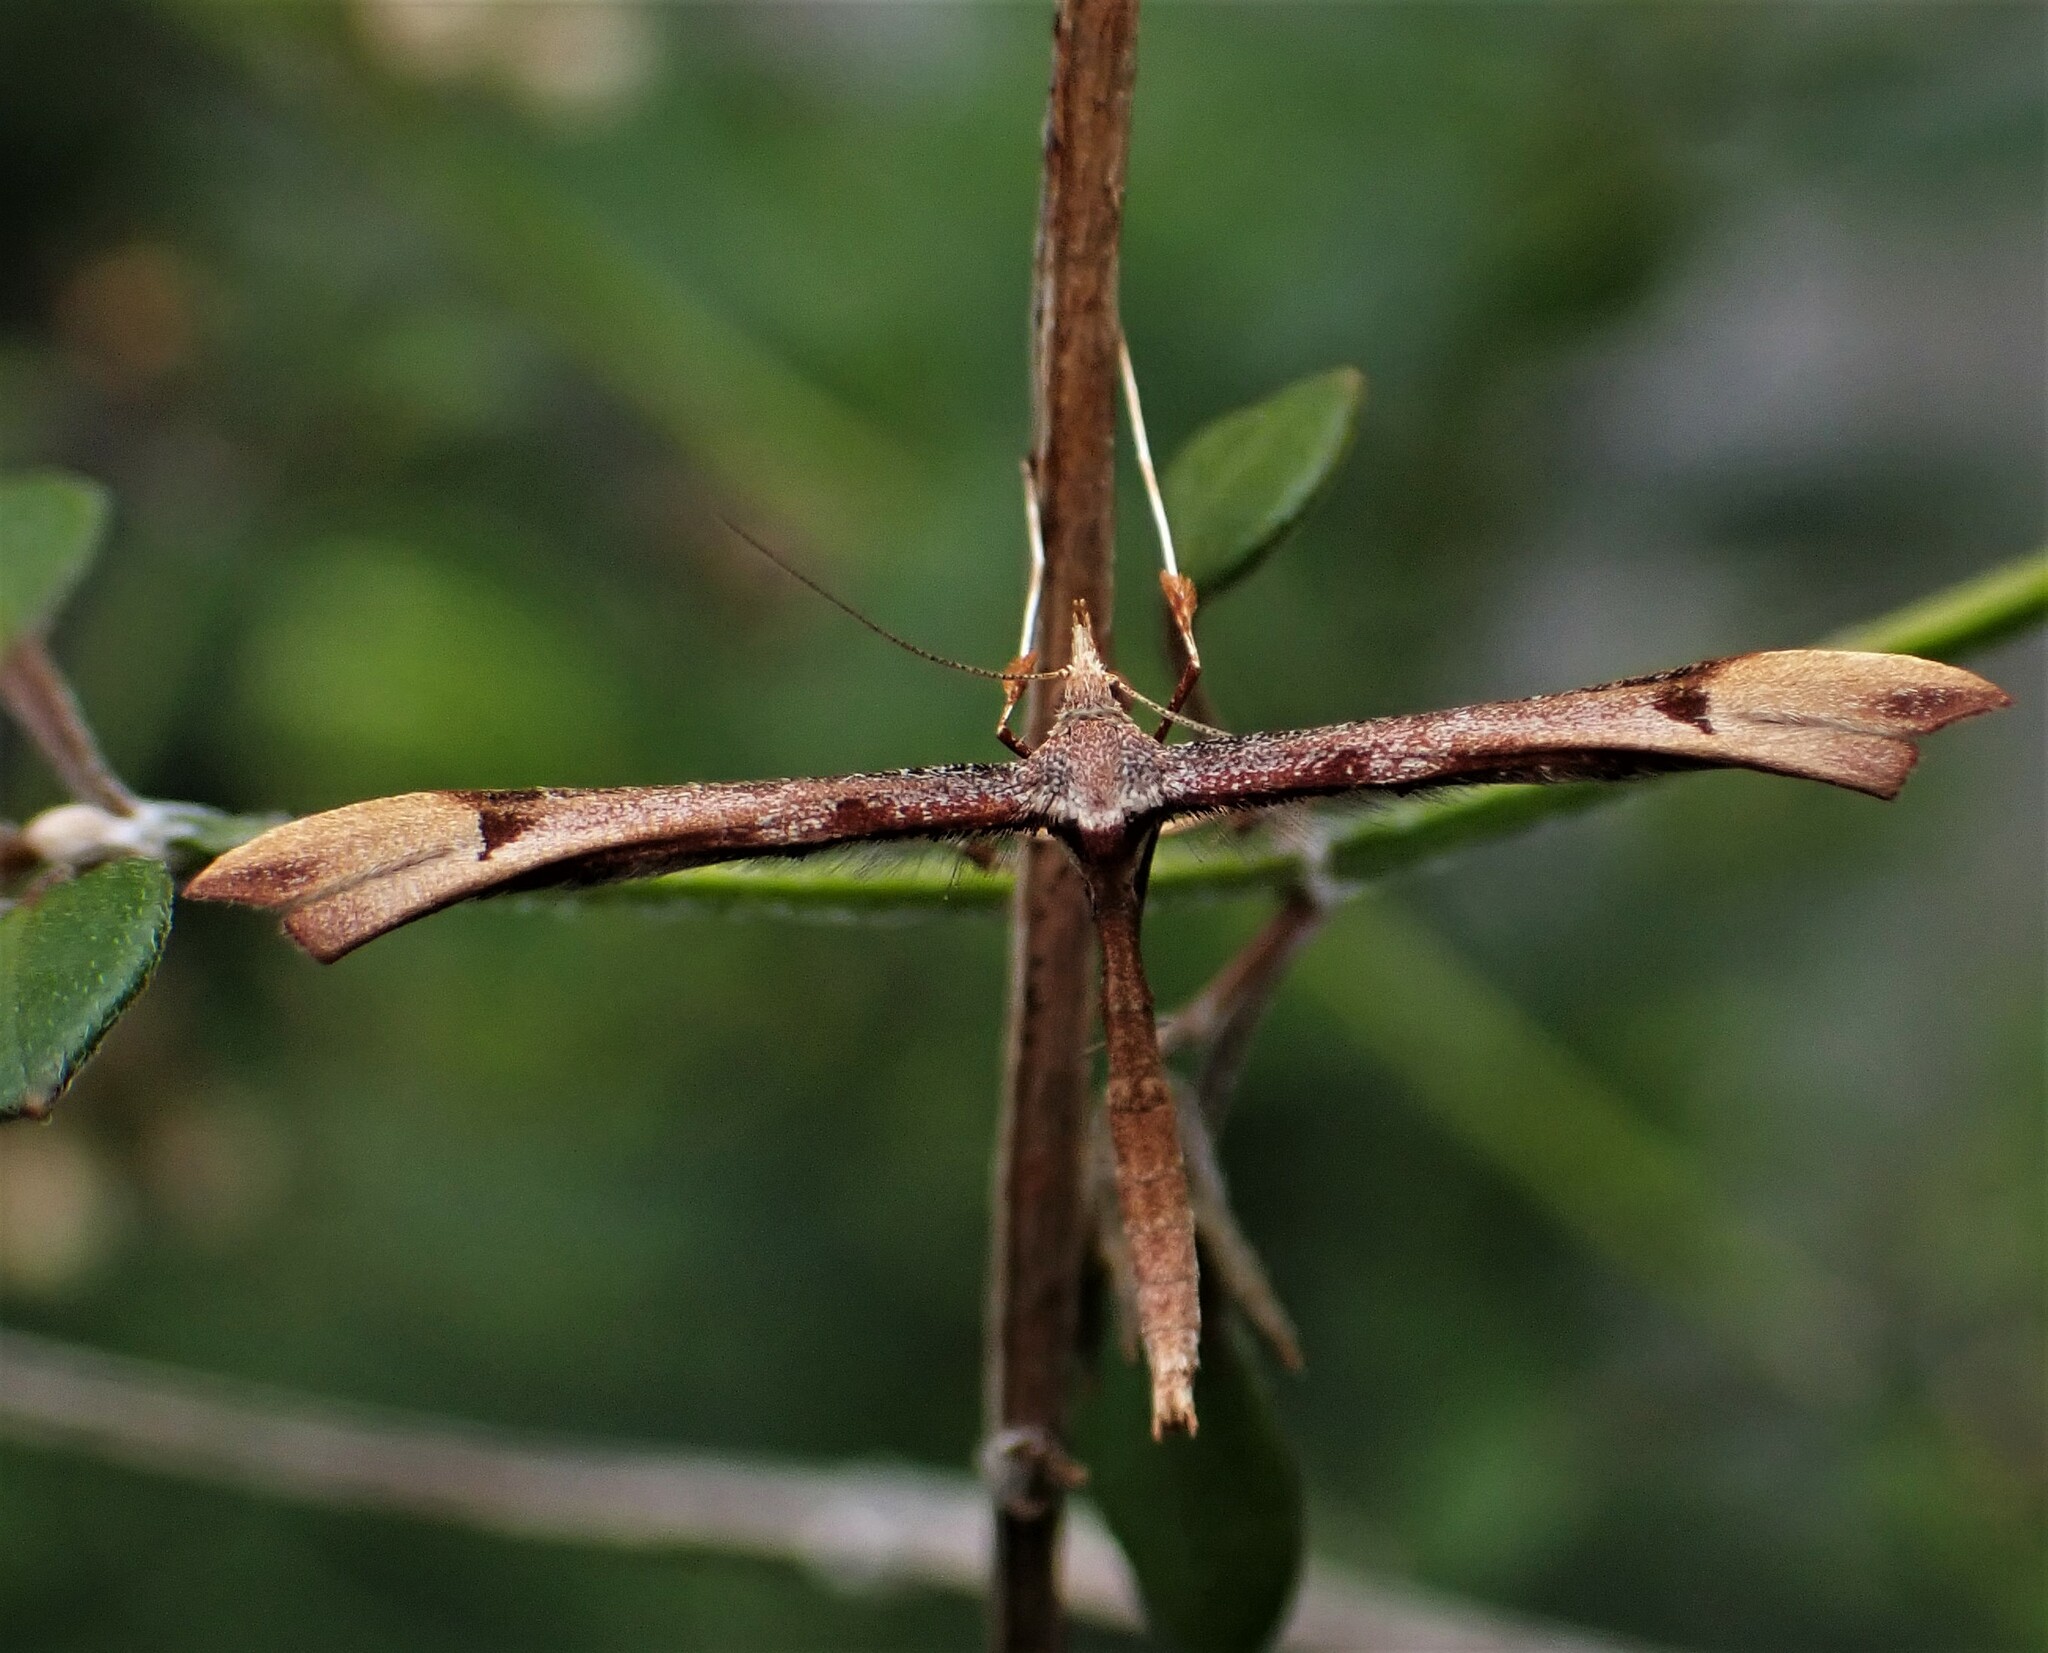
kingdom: Animalia
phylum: Arthropoda
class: Insecta
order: Lepidoptera
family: Pterophoridae
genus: Amblyptilia
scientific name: Amblyptilia heliastis
